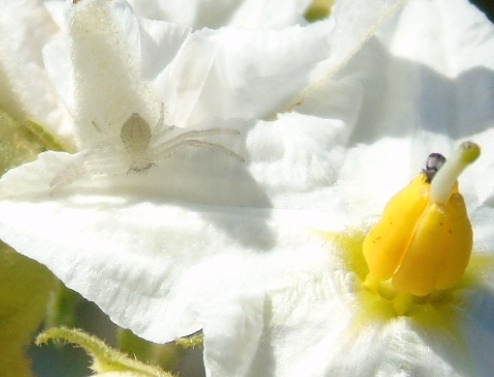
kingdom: Animalia
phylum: Arthropoda
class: Arachnida
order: Araneae
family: Thomisidae
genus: Mecaphesa
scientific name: Mecaphesa
